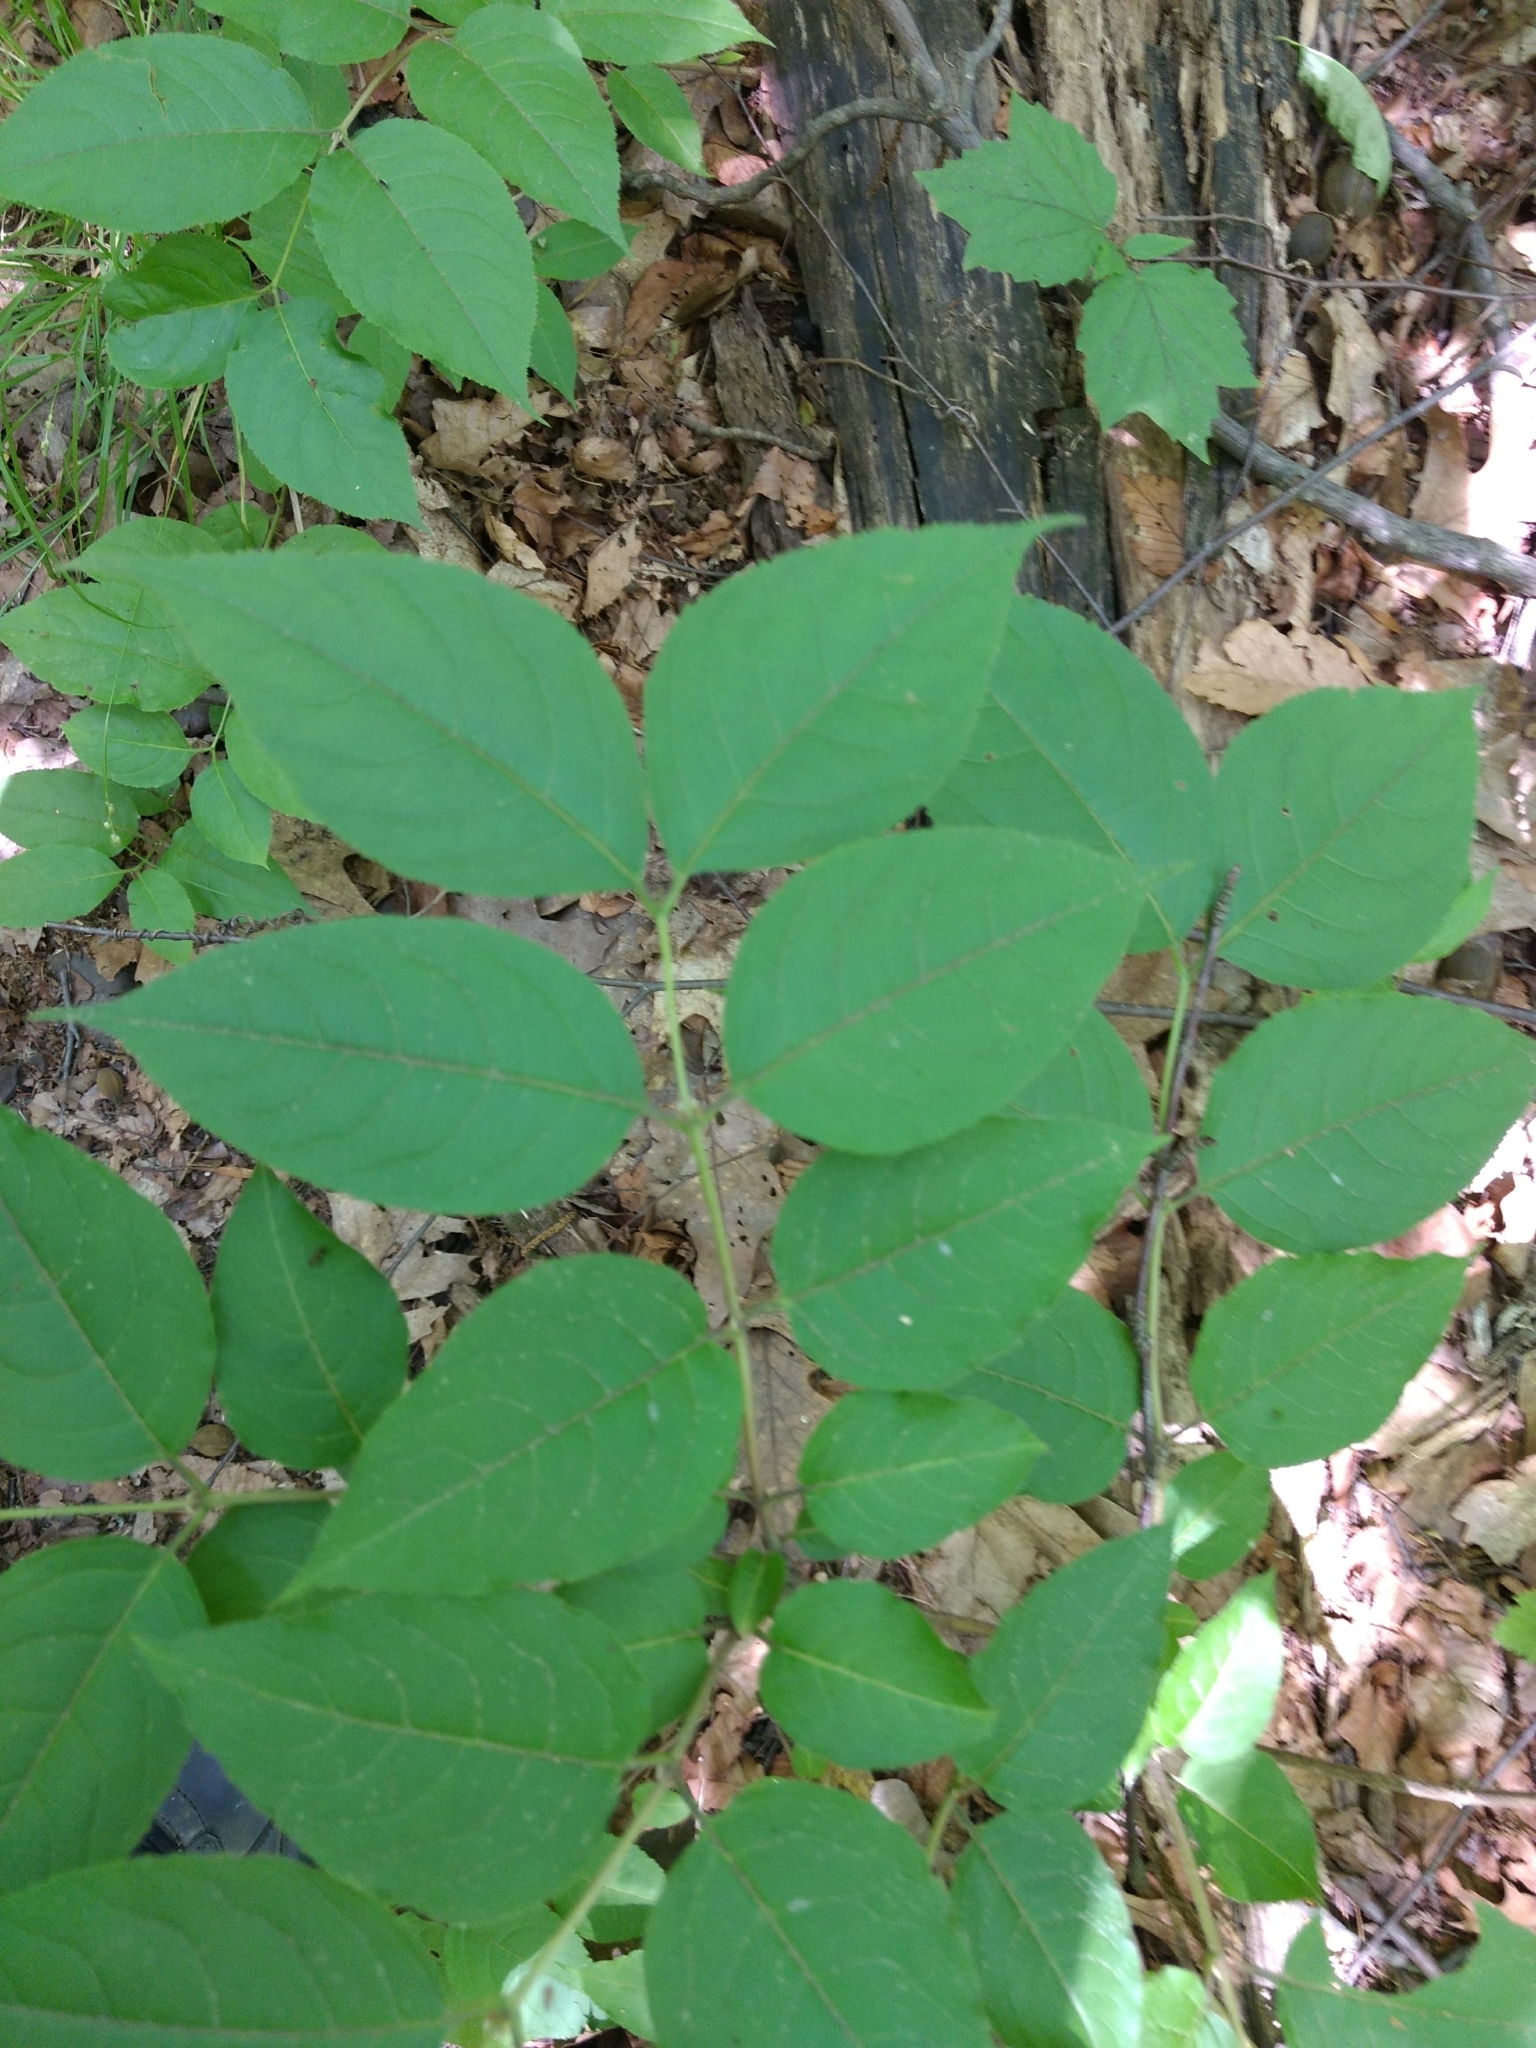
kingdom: Plantae
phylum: Tracheophyta
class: Magnoliopsida
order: Dipsacales
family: Caprifoliaceae
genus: Diervilla
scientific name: Diervilla lonicera
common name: Bush-honeysuckle
